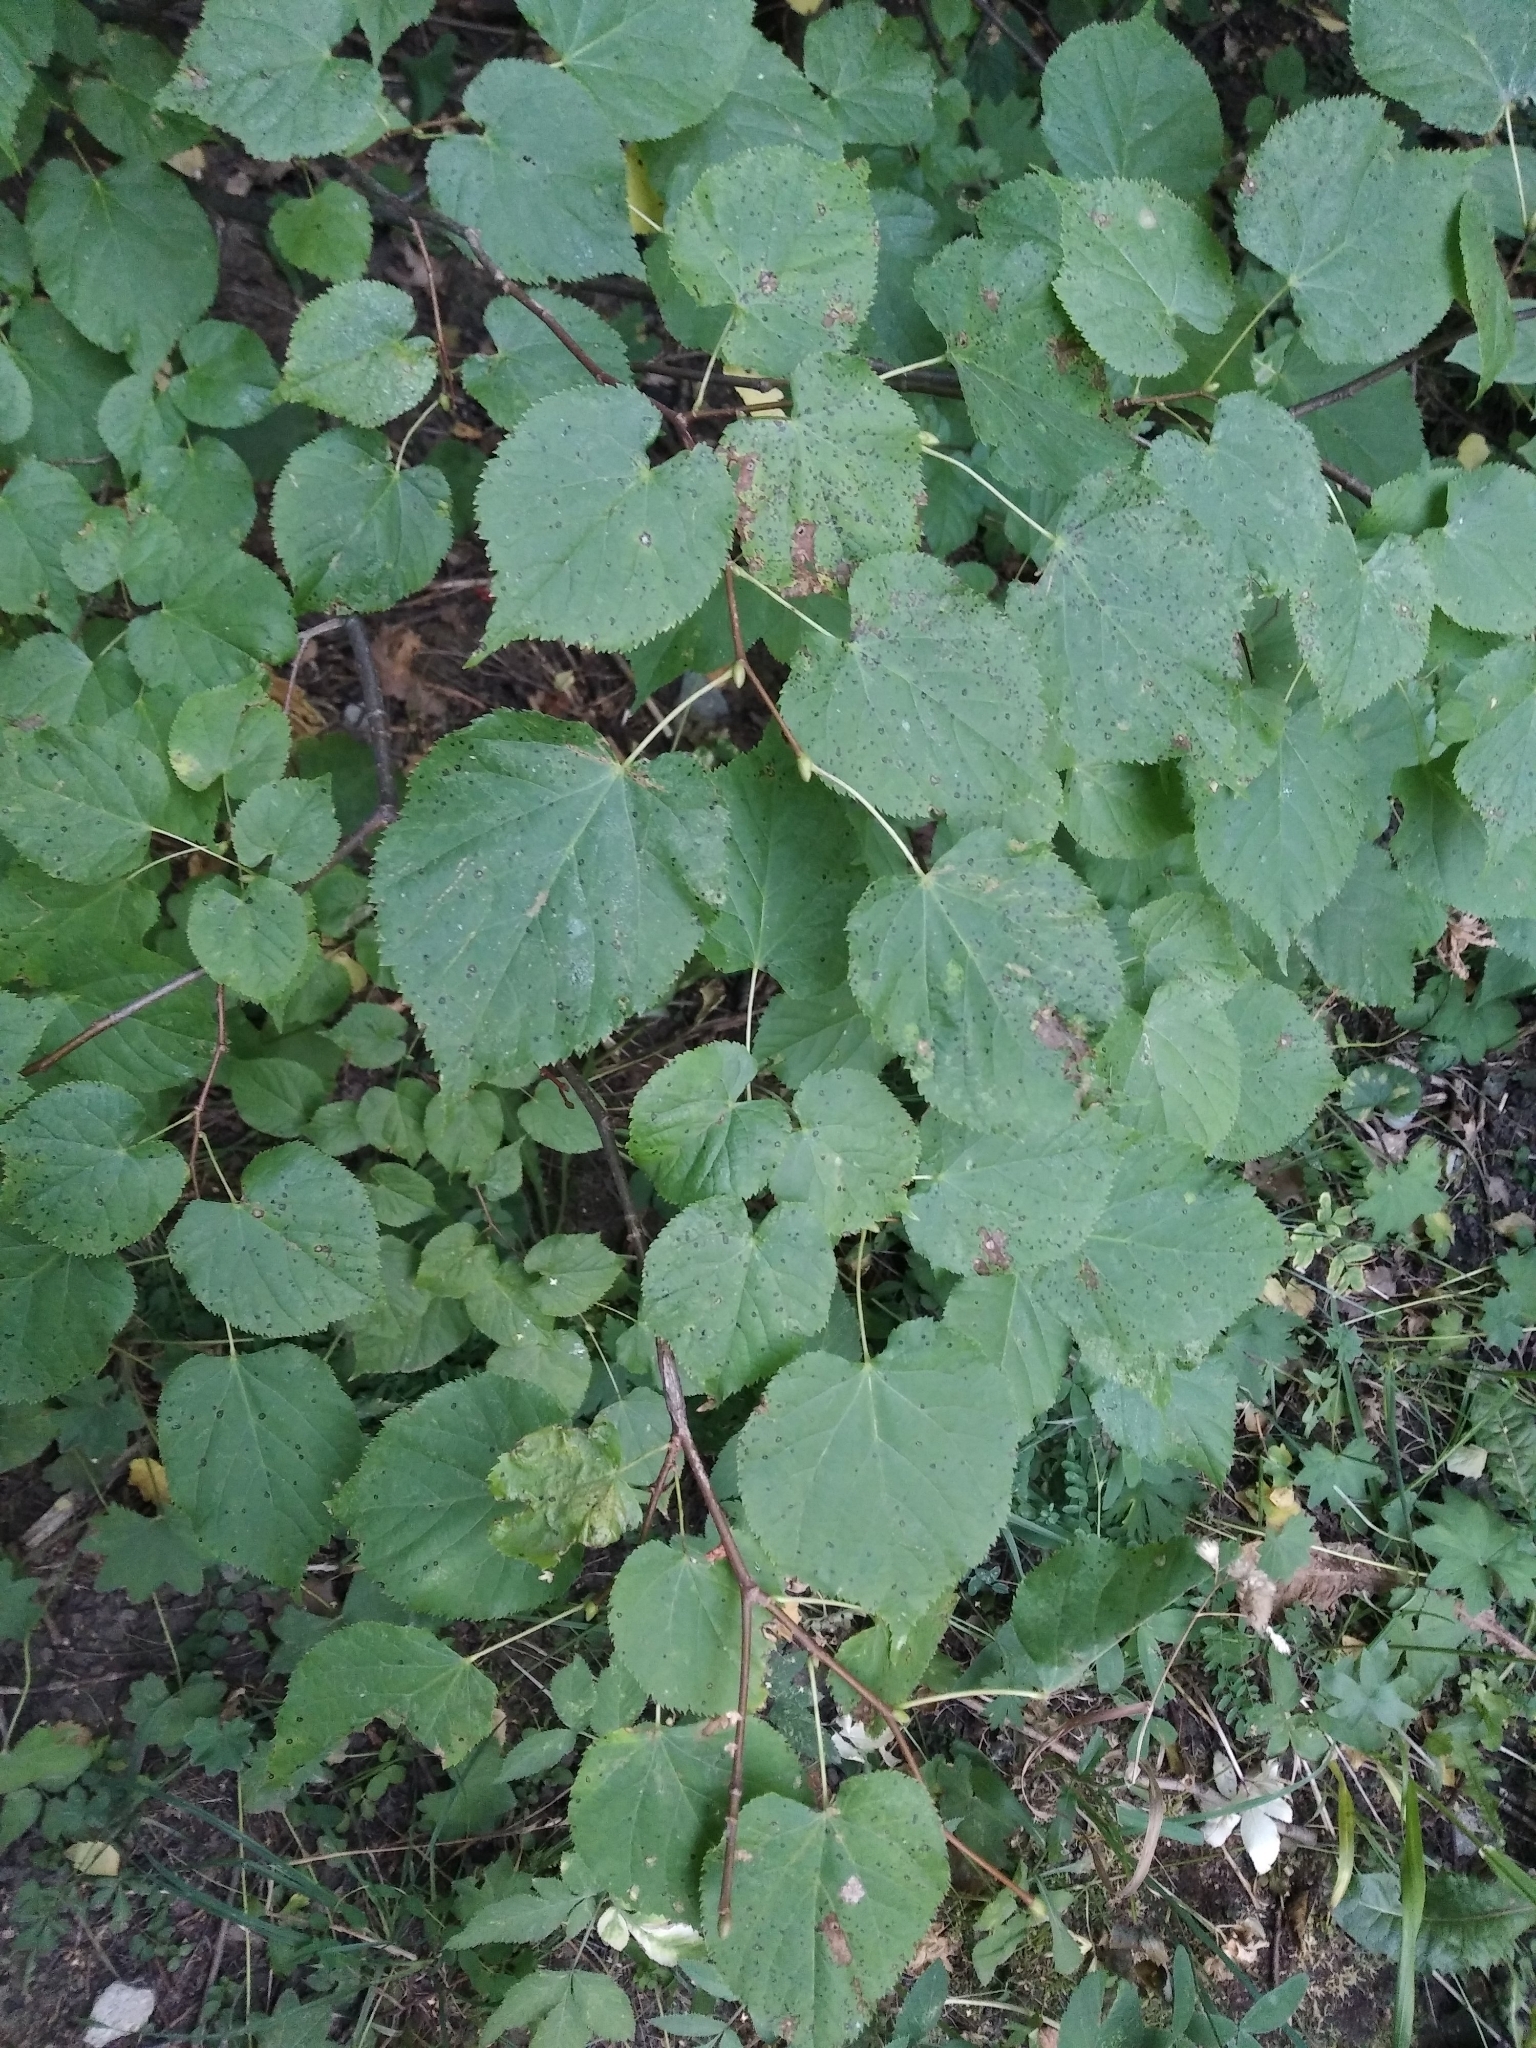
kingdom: Plantae
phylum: Tracheophyta
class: Magnoliopsida
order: Malvales
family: Malvaceae
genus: Tilia
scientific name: Tilia cordata
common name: Small-leaved lime
